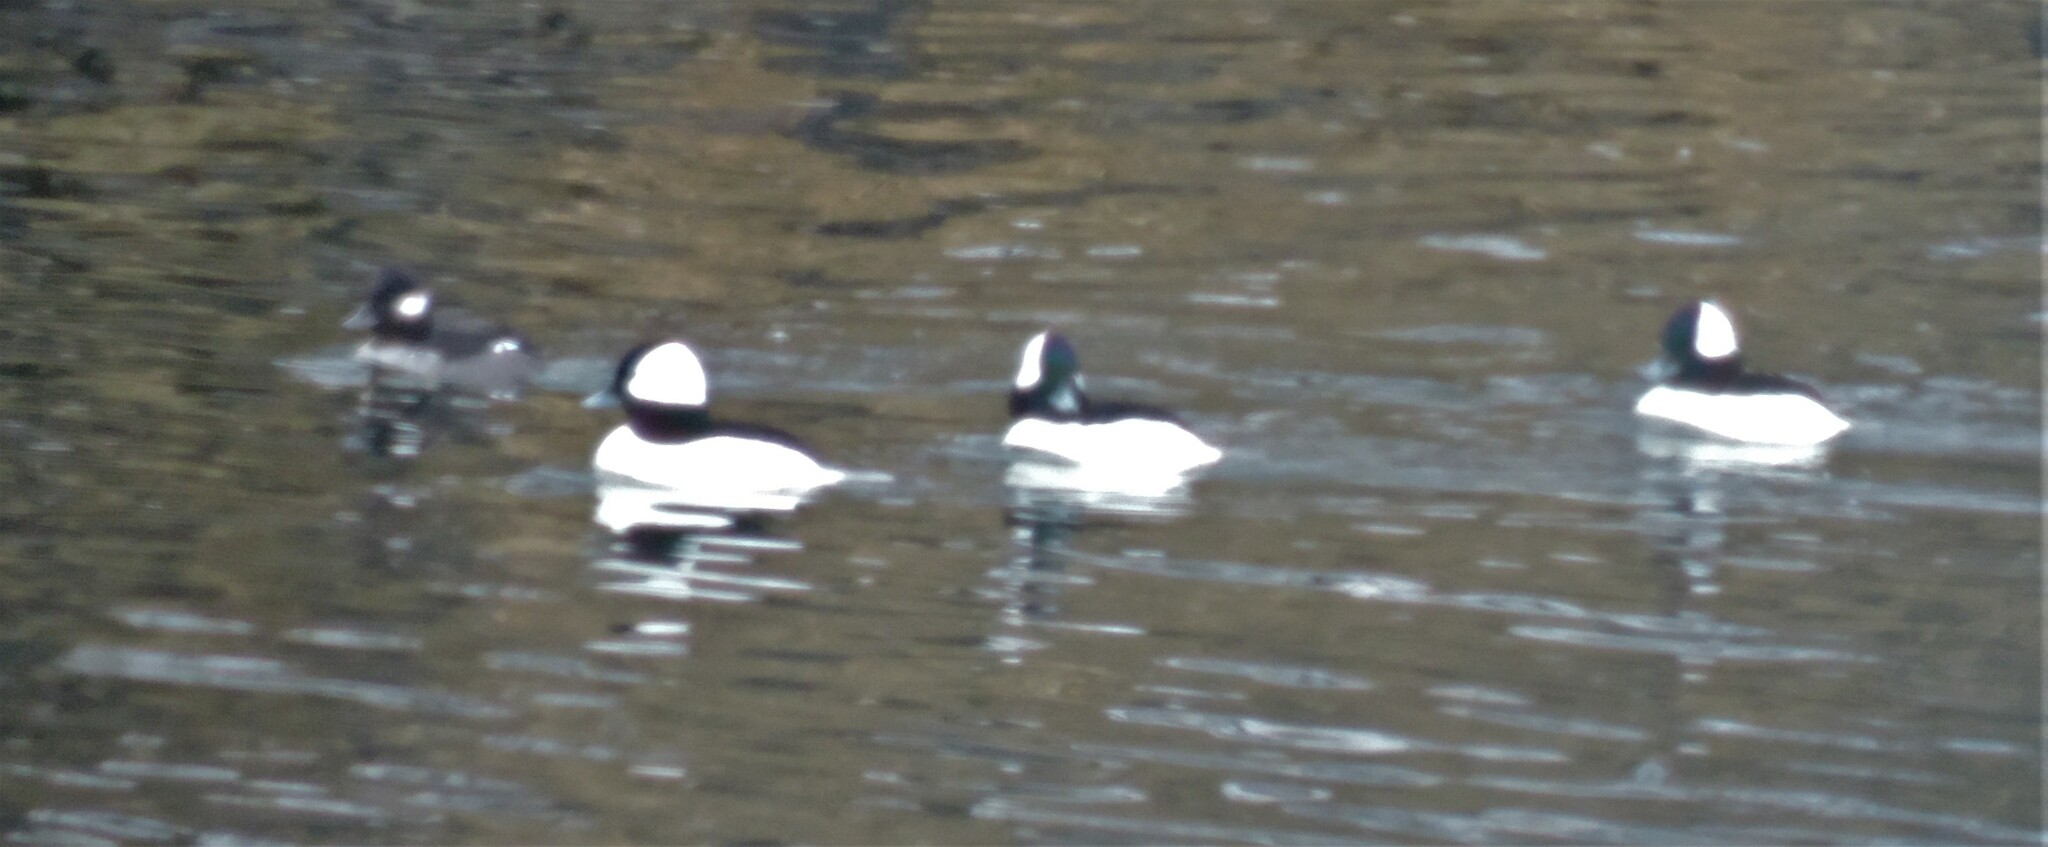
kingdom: Animalia
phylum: Chordata
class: Aves
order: Anseriformes
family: Anatidae
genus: Bucephala
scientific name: Bucephala albeola
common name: Bufflehead
